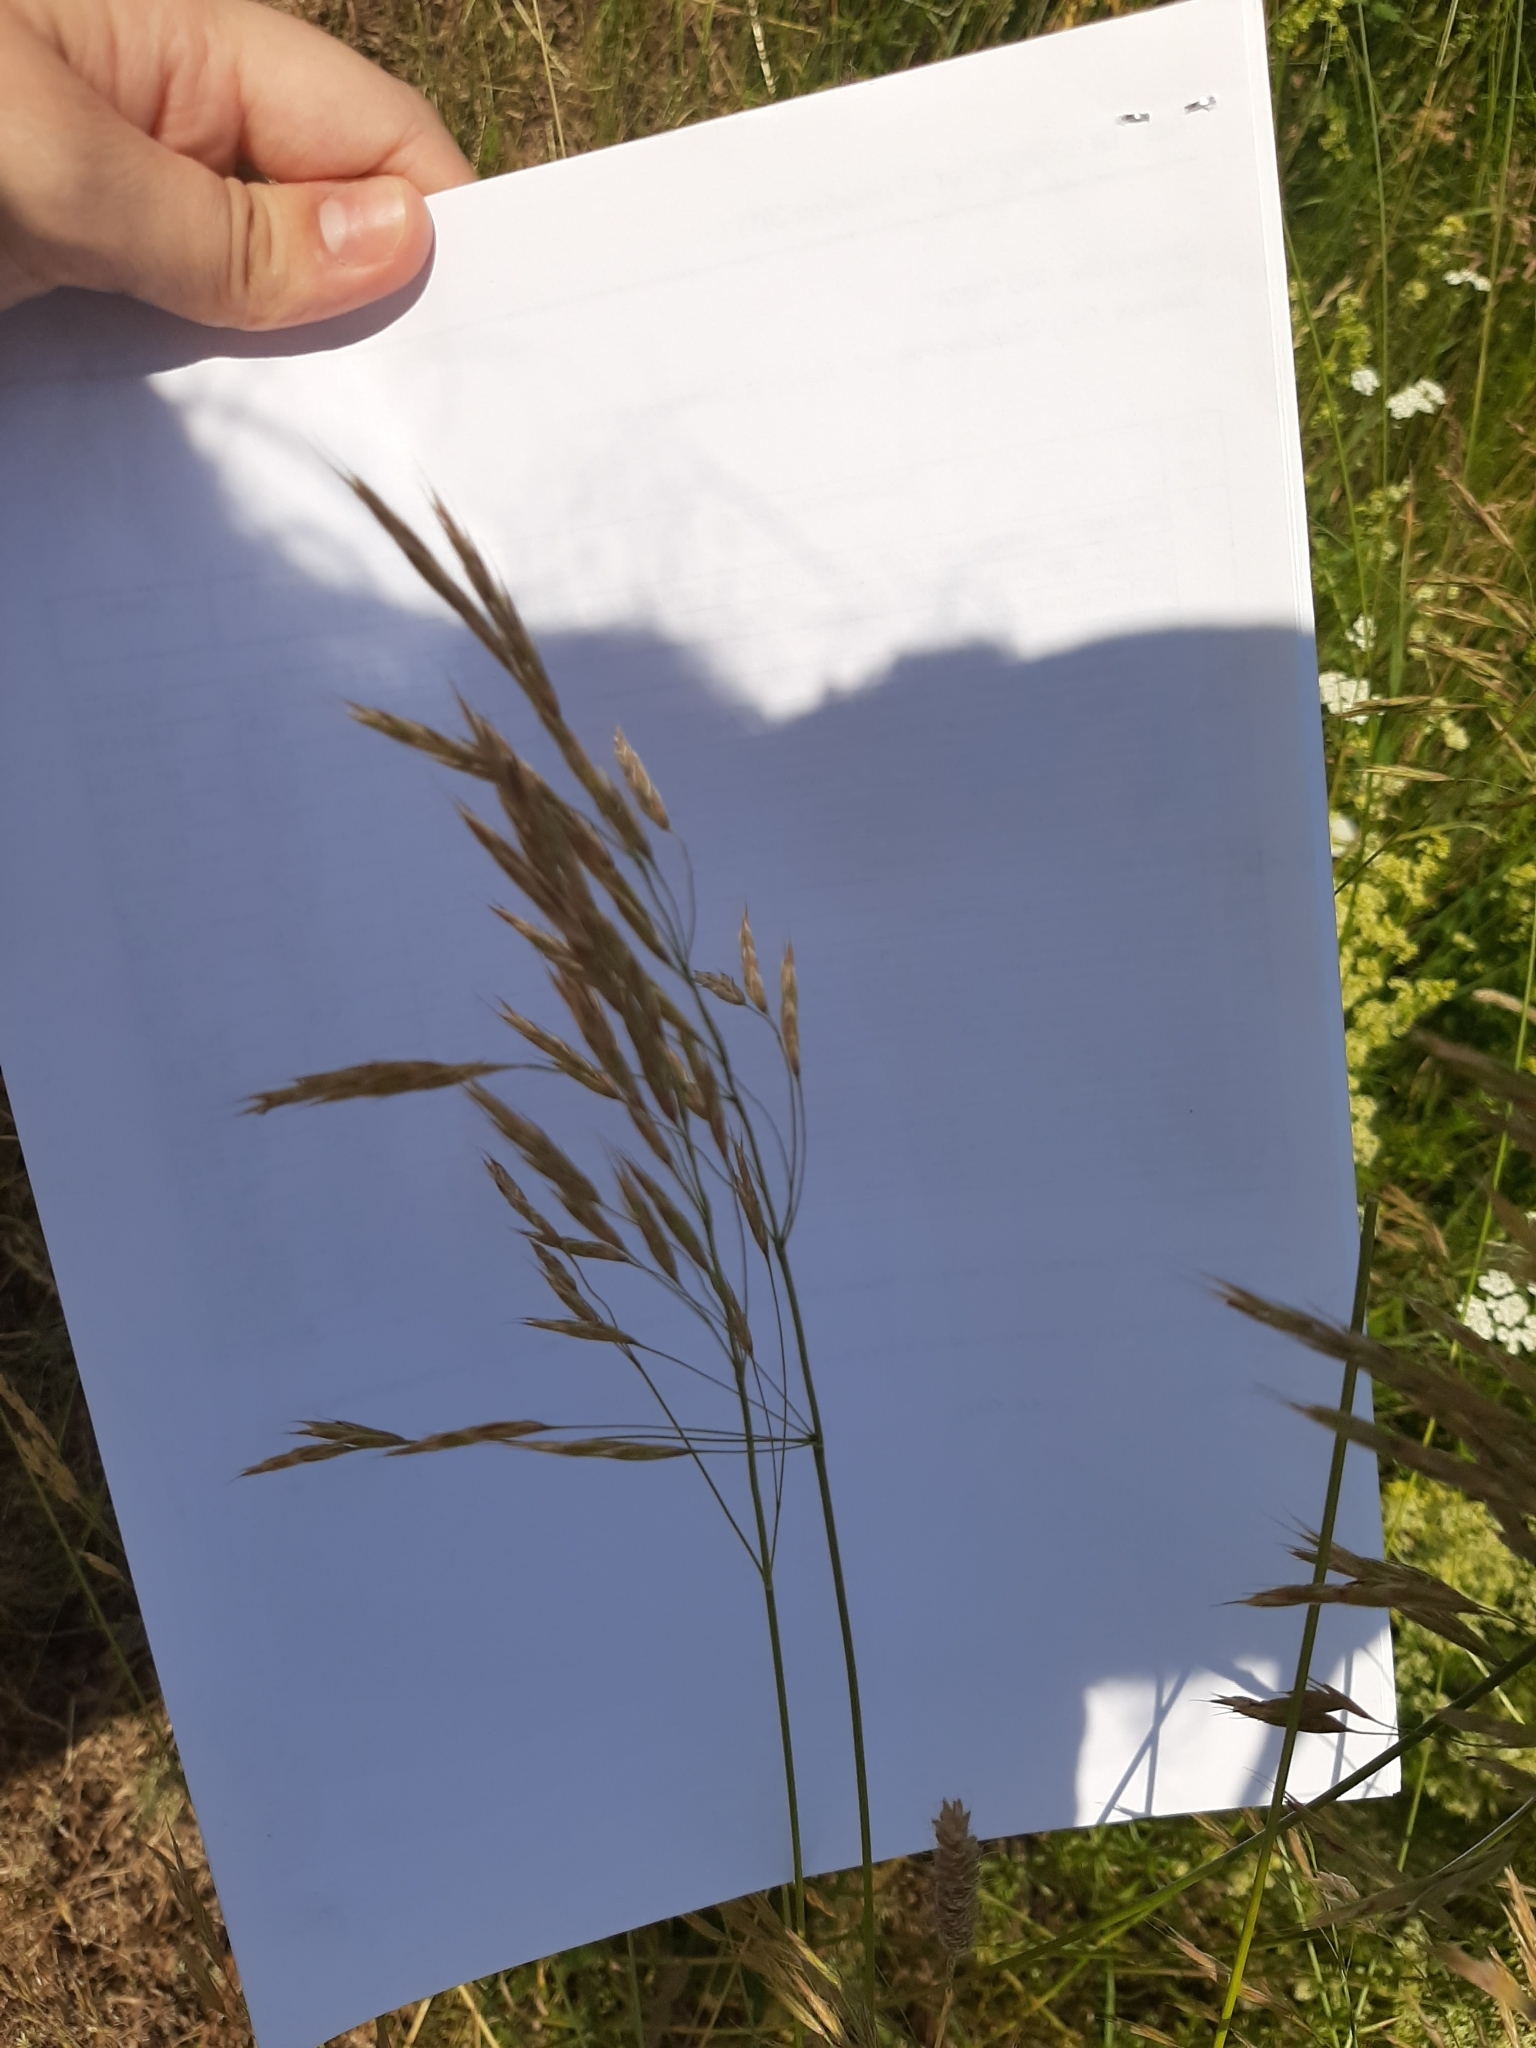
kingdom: Plantae
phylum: Tracheophyta
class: Liliopsida
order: Poales
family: Poaceae
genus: Bromus
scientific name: Bromus riparius
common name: Meadow brome
